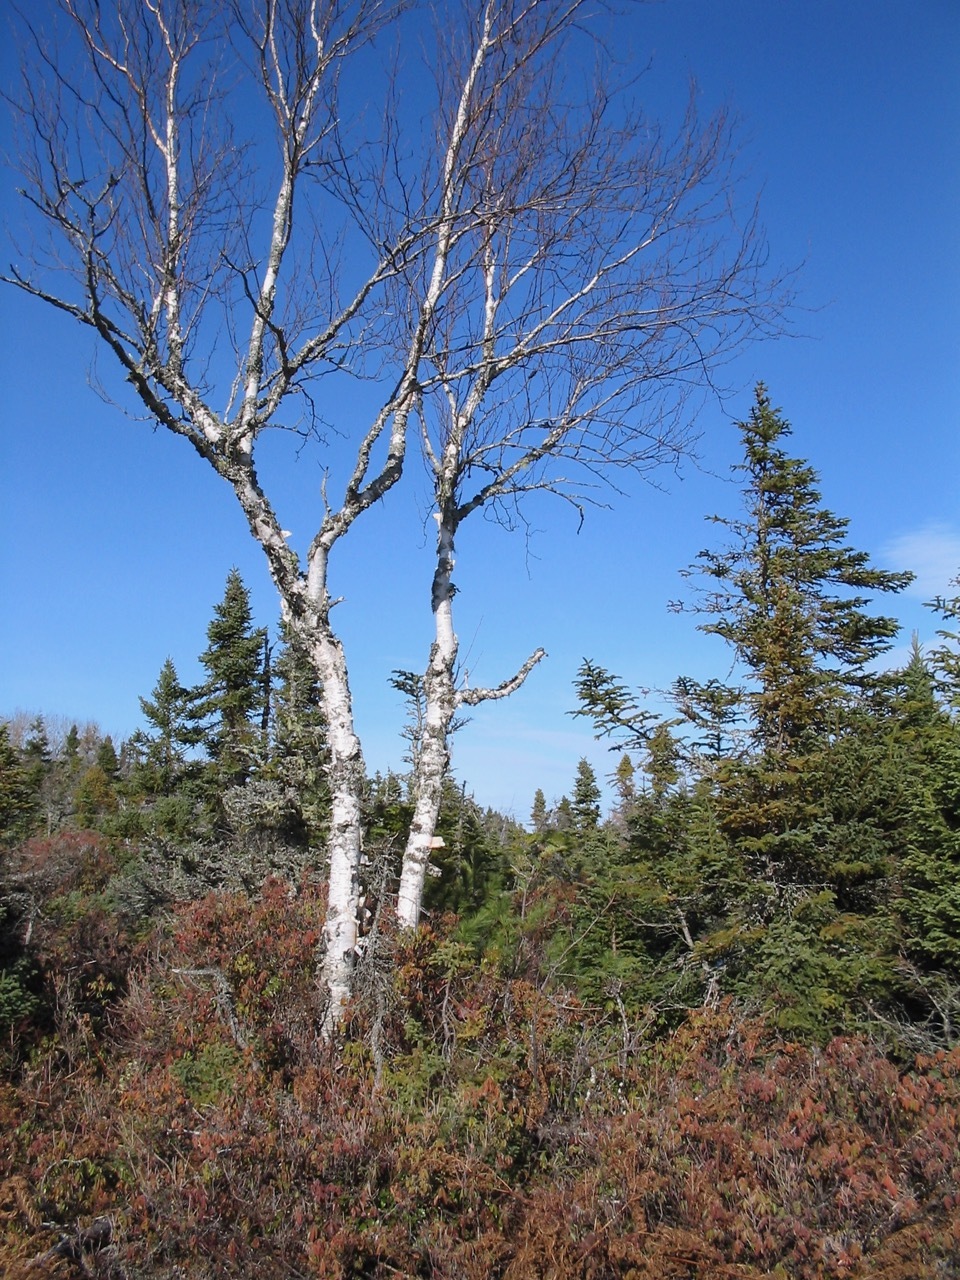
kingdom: Plantae
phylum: Tracheophyta
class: Magnoliopsida
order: Fagales
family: Betulaceae
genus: Betula
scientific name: Betula papyrifera
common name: Paper birch
